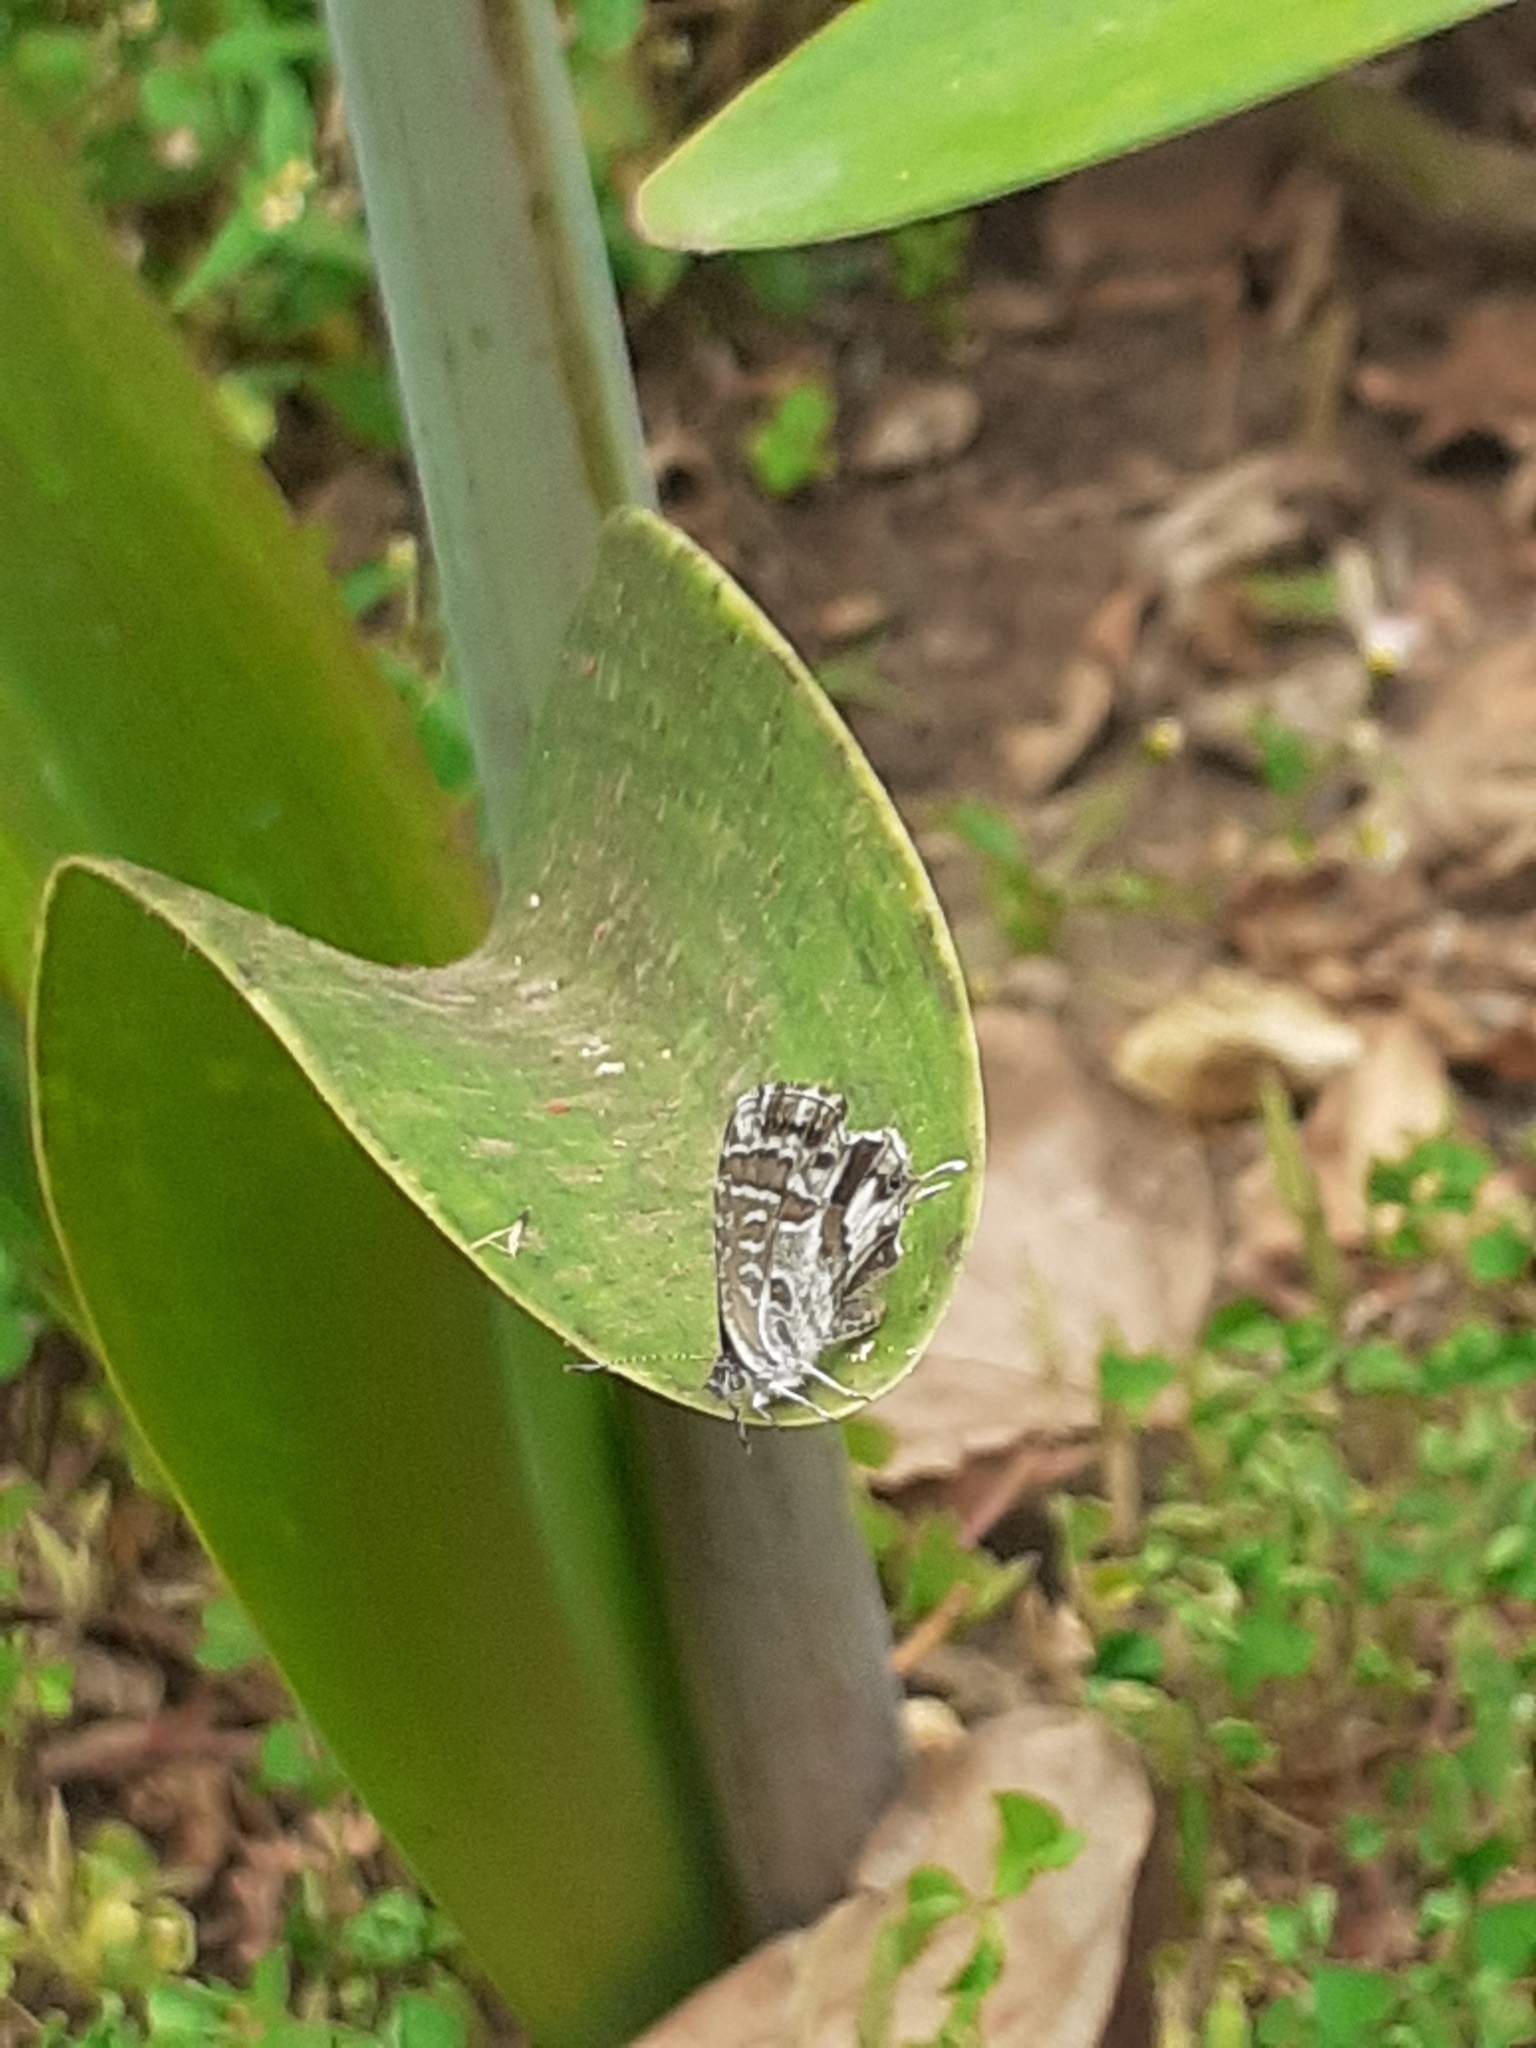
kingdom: Animalia
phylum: Arthropoda
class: Insecta
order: Lepidoptera
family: Lycaenidae
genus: Cacyreus
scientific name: Cacyreus marshalli
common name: Geranium bronze
